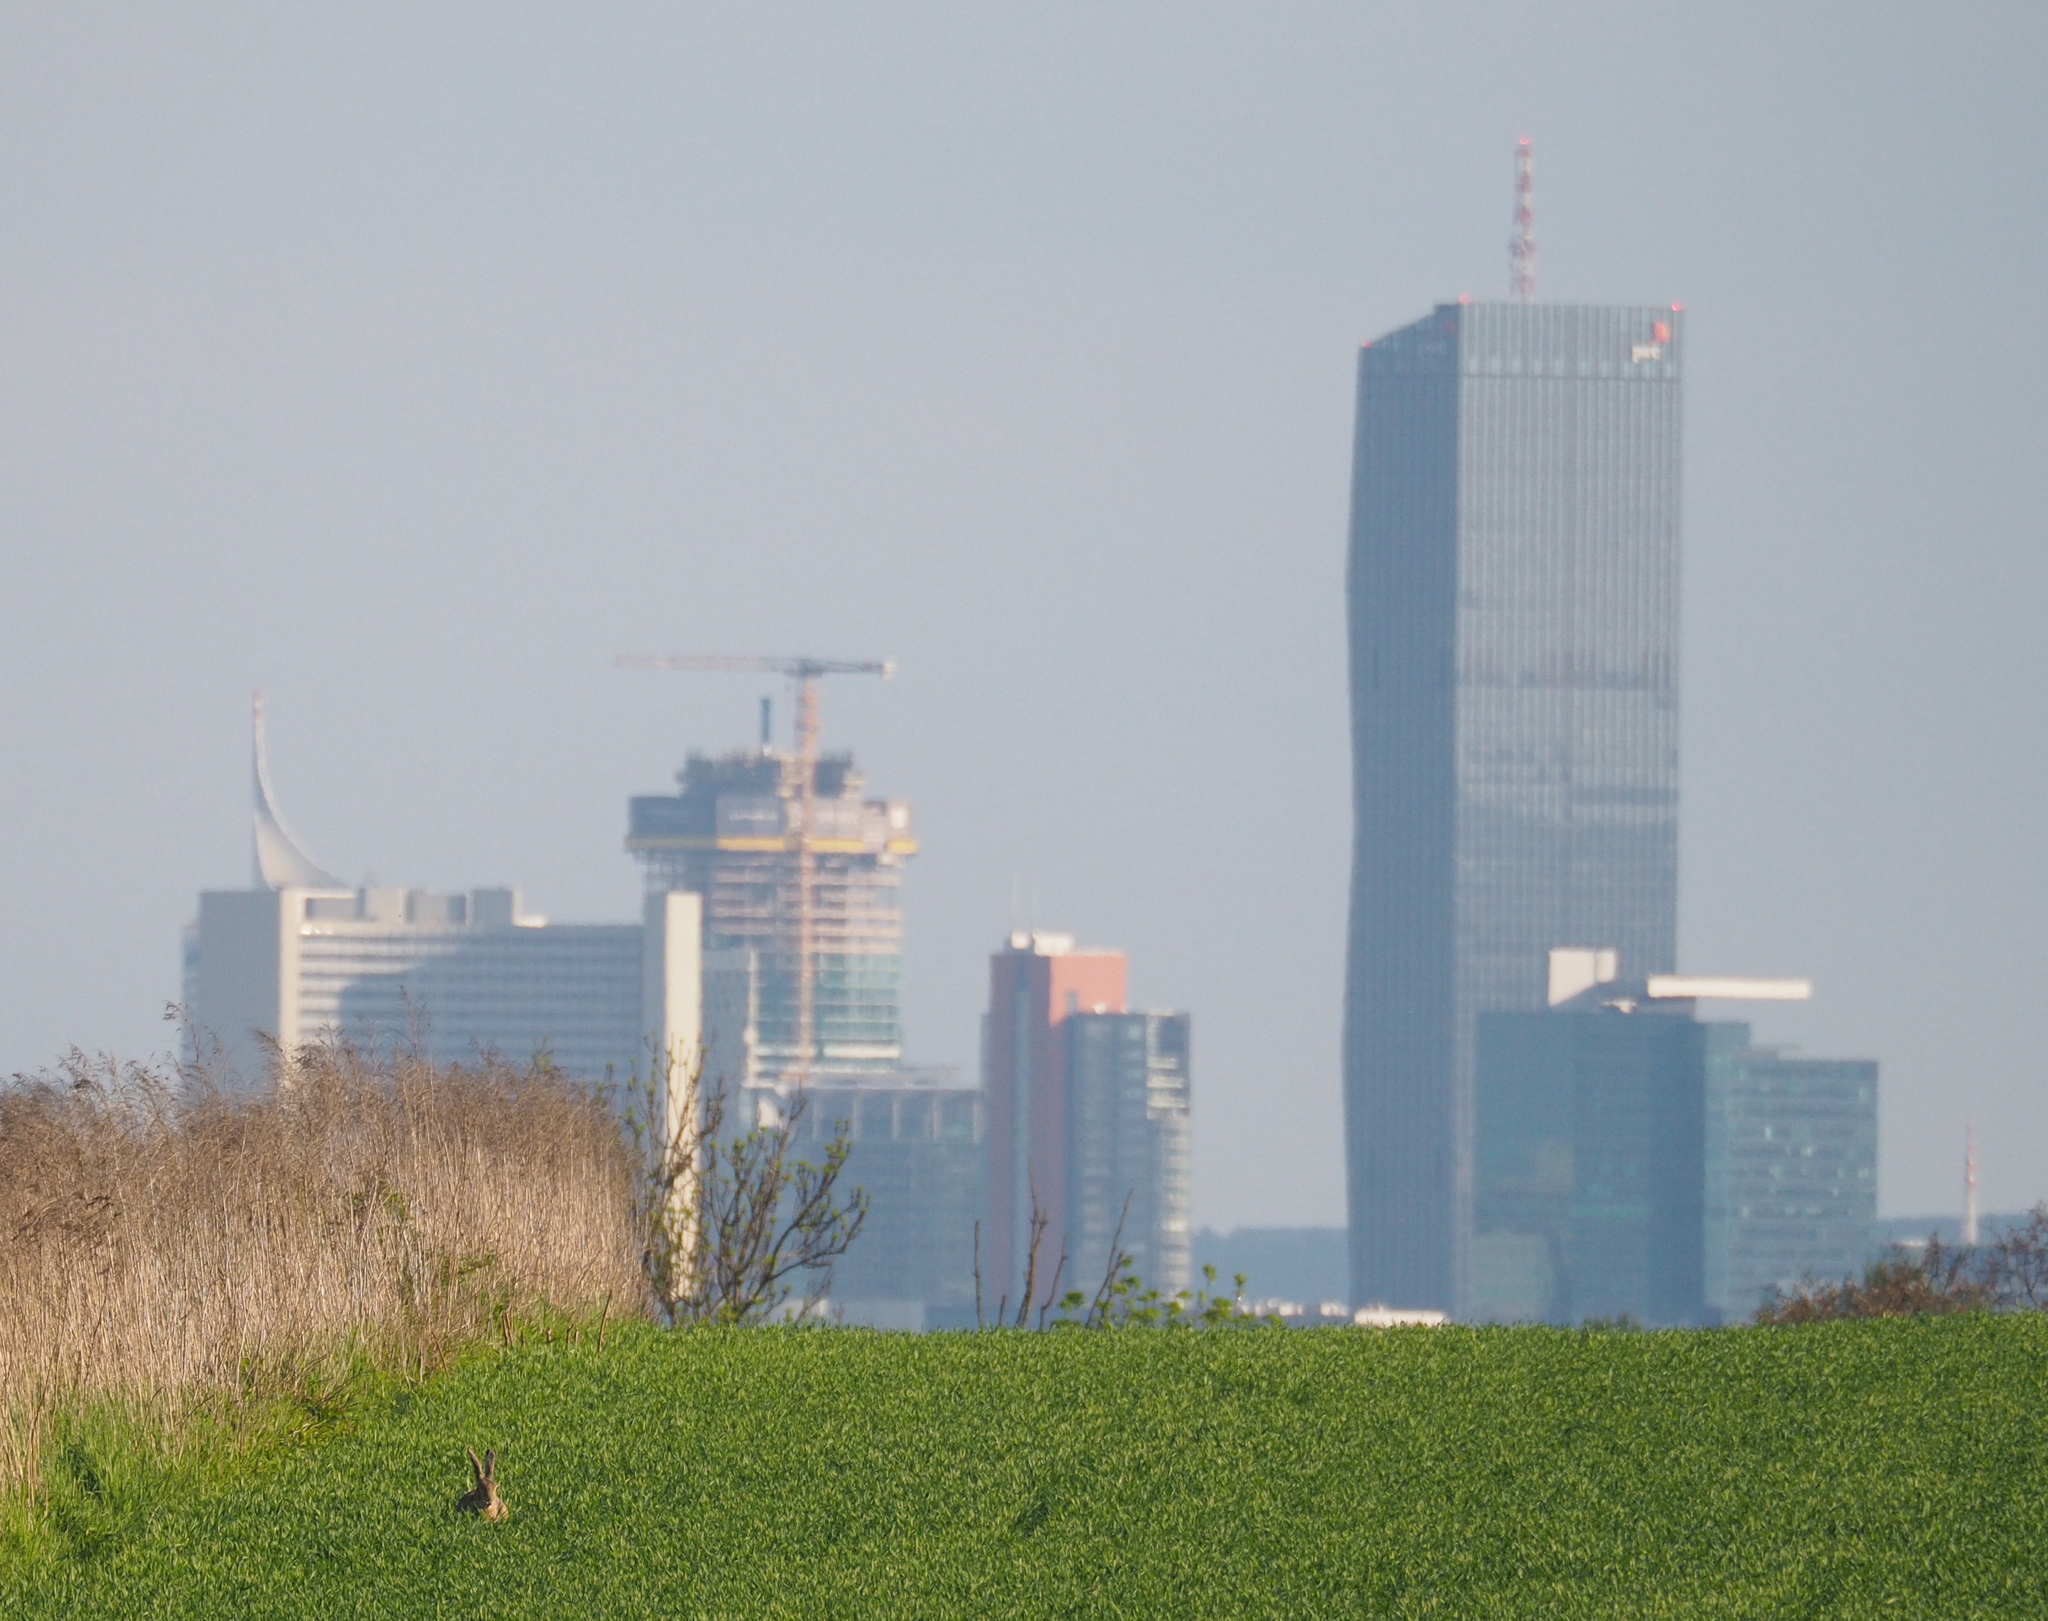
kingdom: Animalia
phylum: Chordata
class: Mammalia
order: Lagomorpha
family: Leporidae
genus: Lepus
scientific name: Lepus europaeus
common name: European hare
